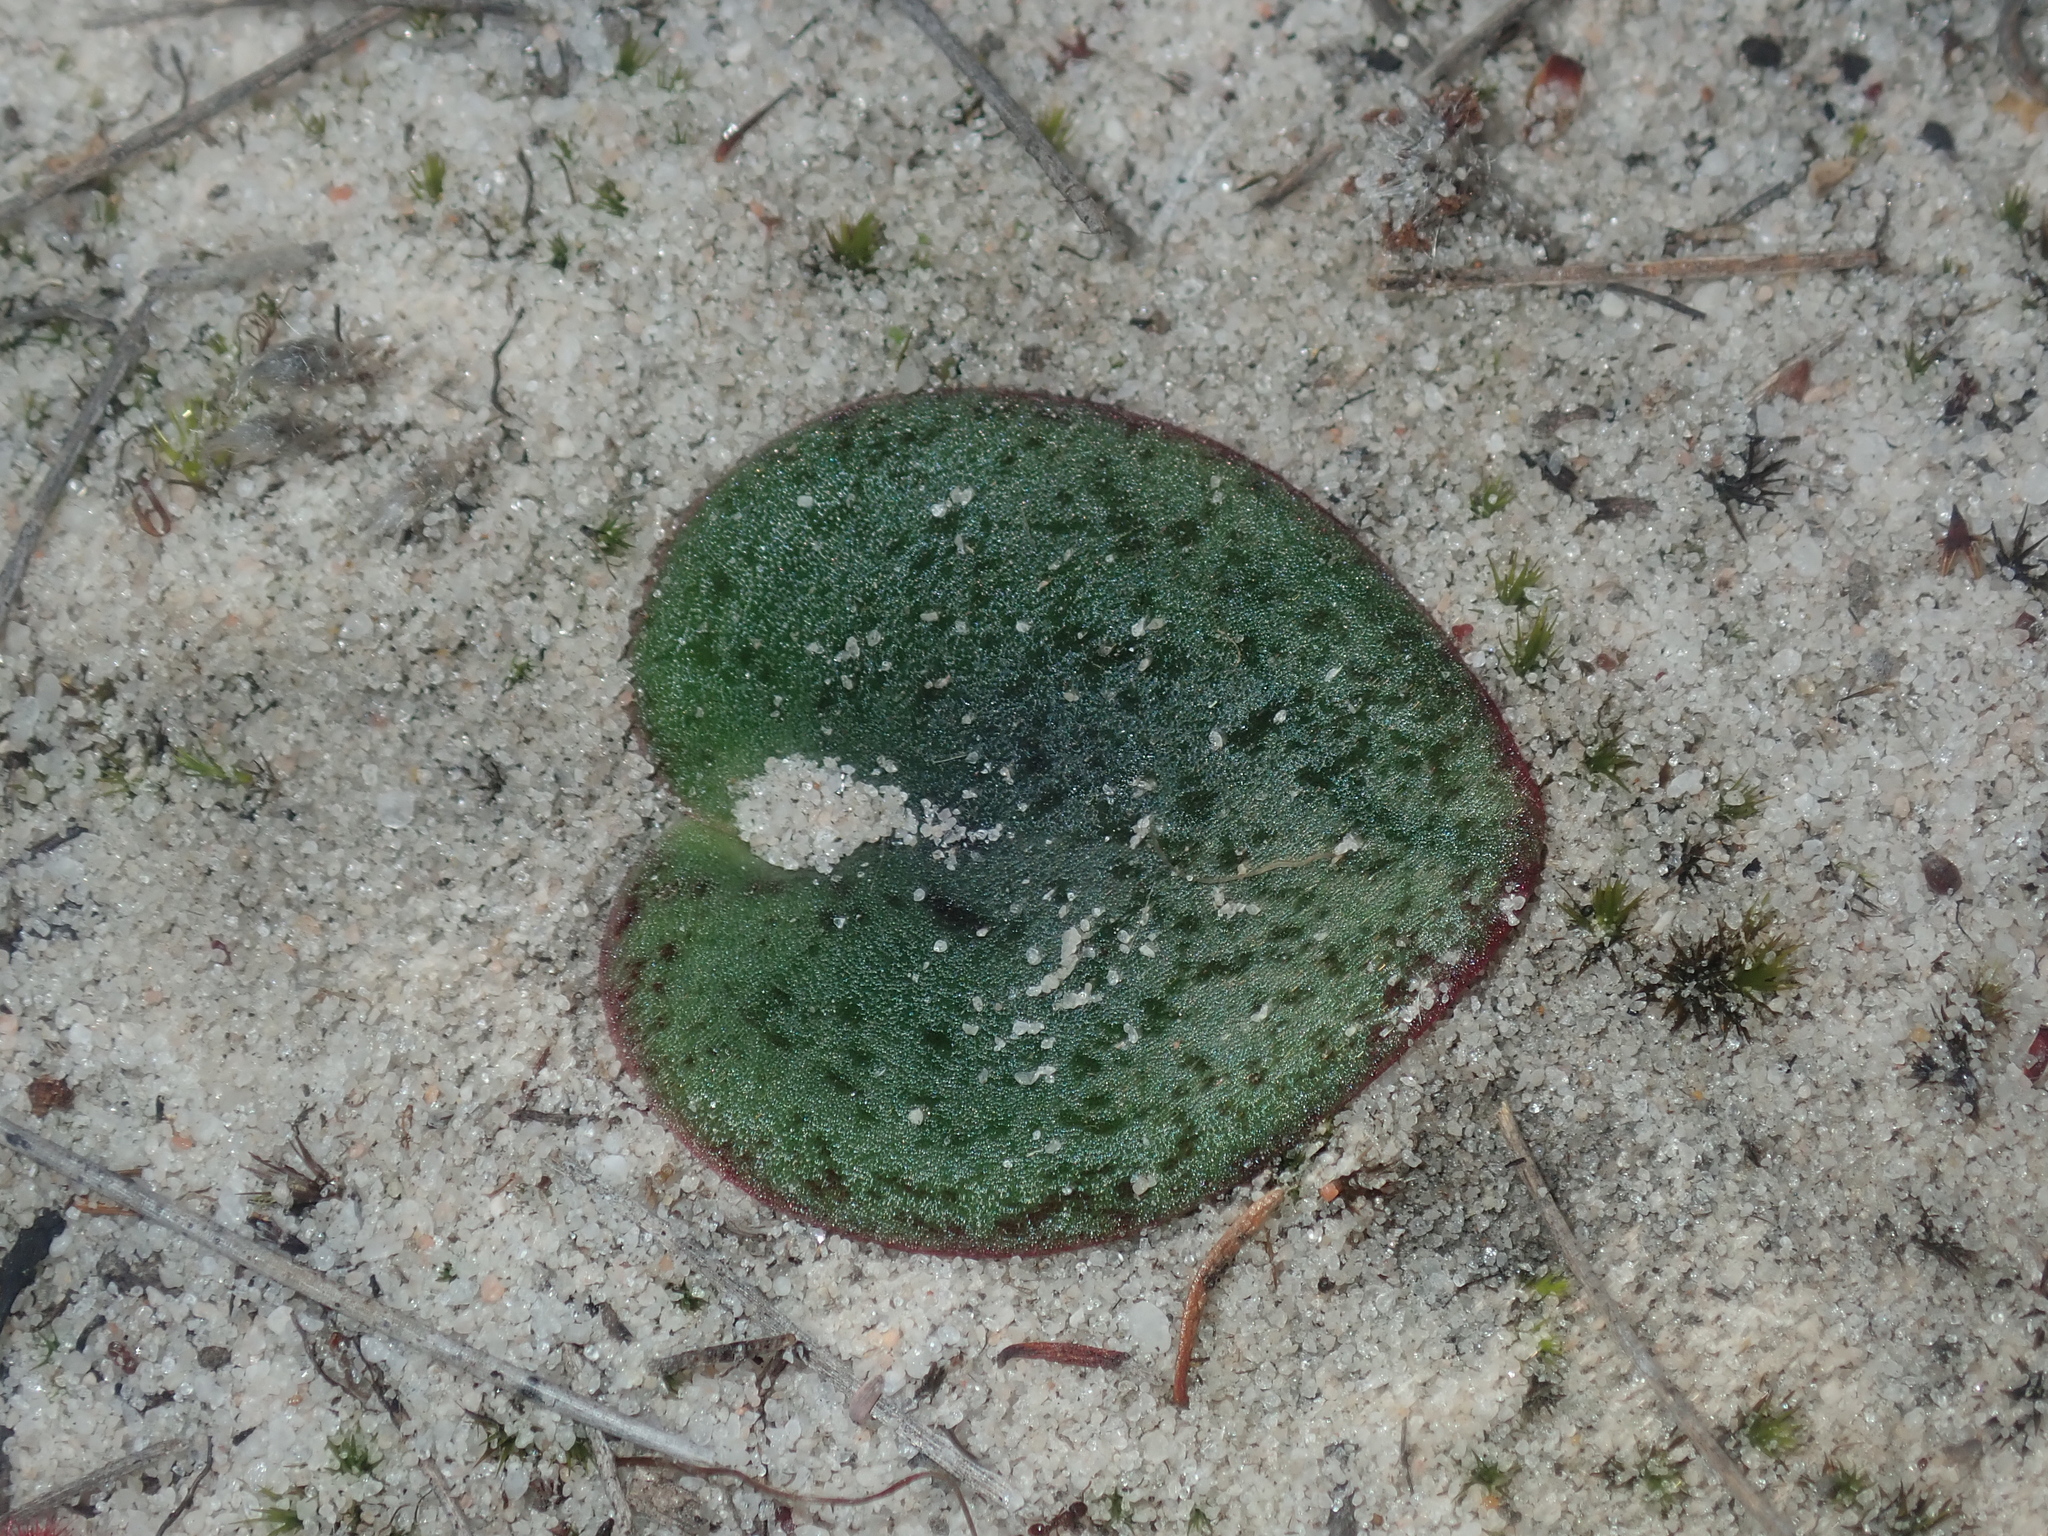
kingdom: Plantae
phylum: Tracheophyta
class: Liliopsida
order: Asparagales
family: Orchidaceae
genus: Pyrorchis
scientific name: Pyrorchis nigricans
